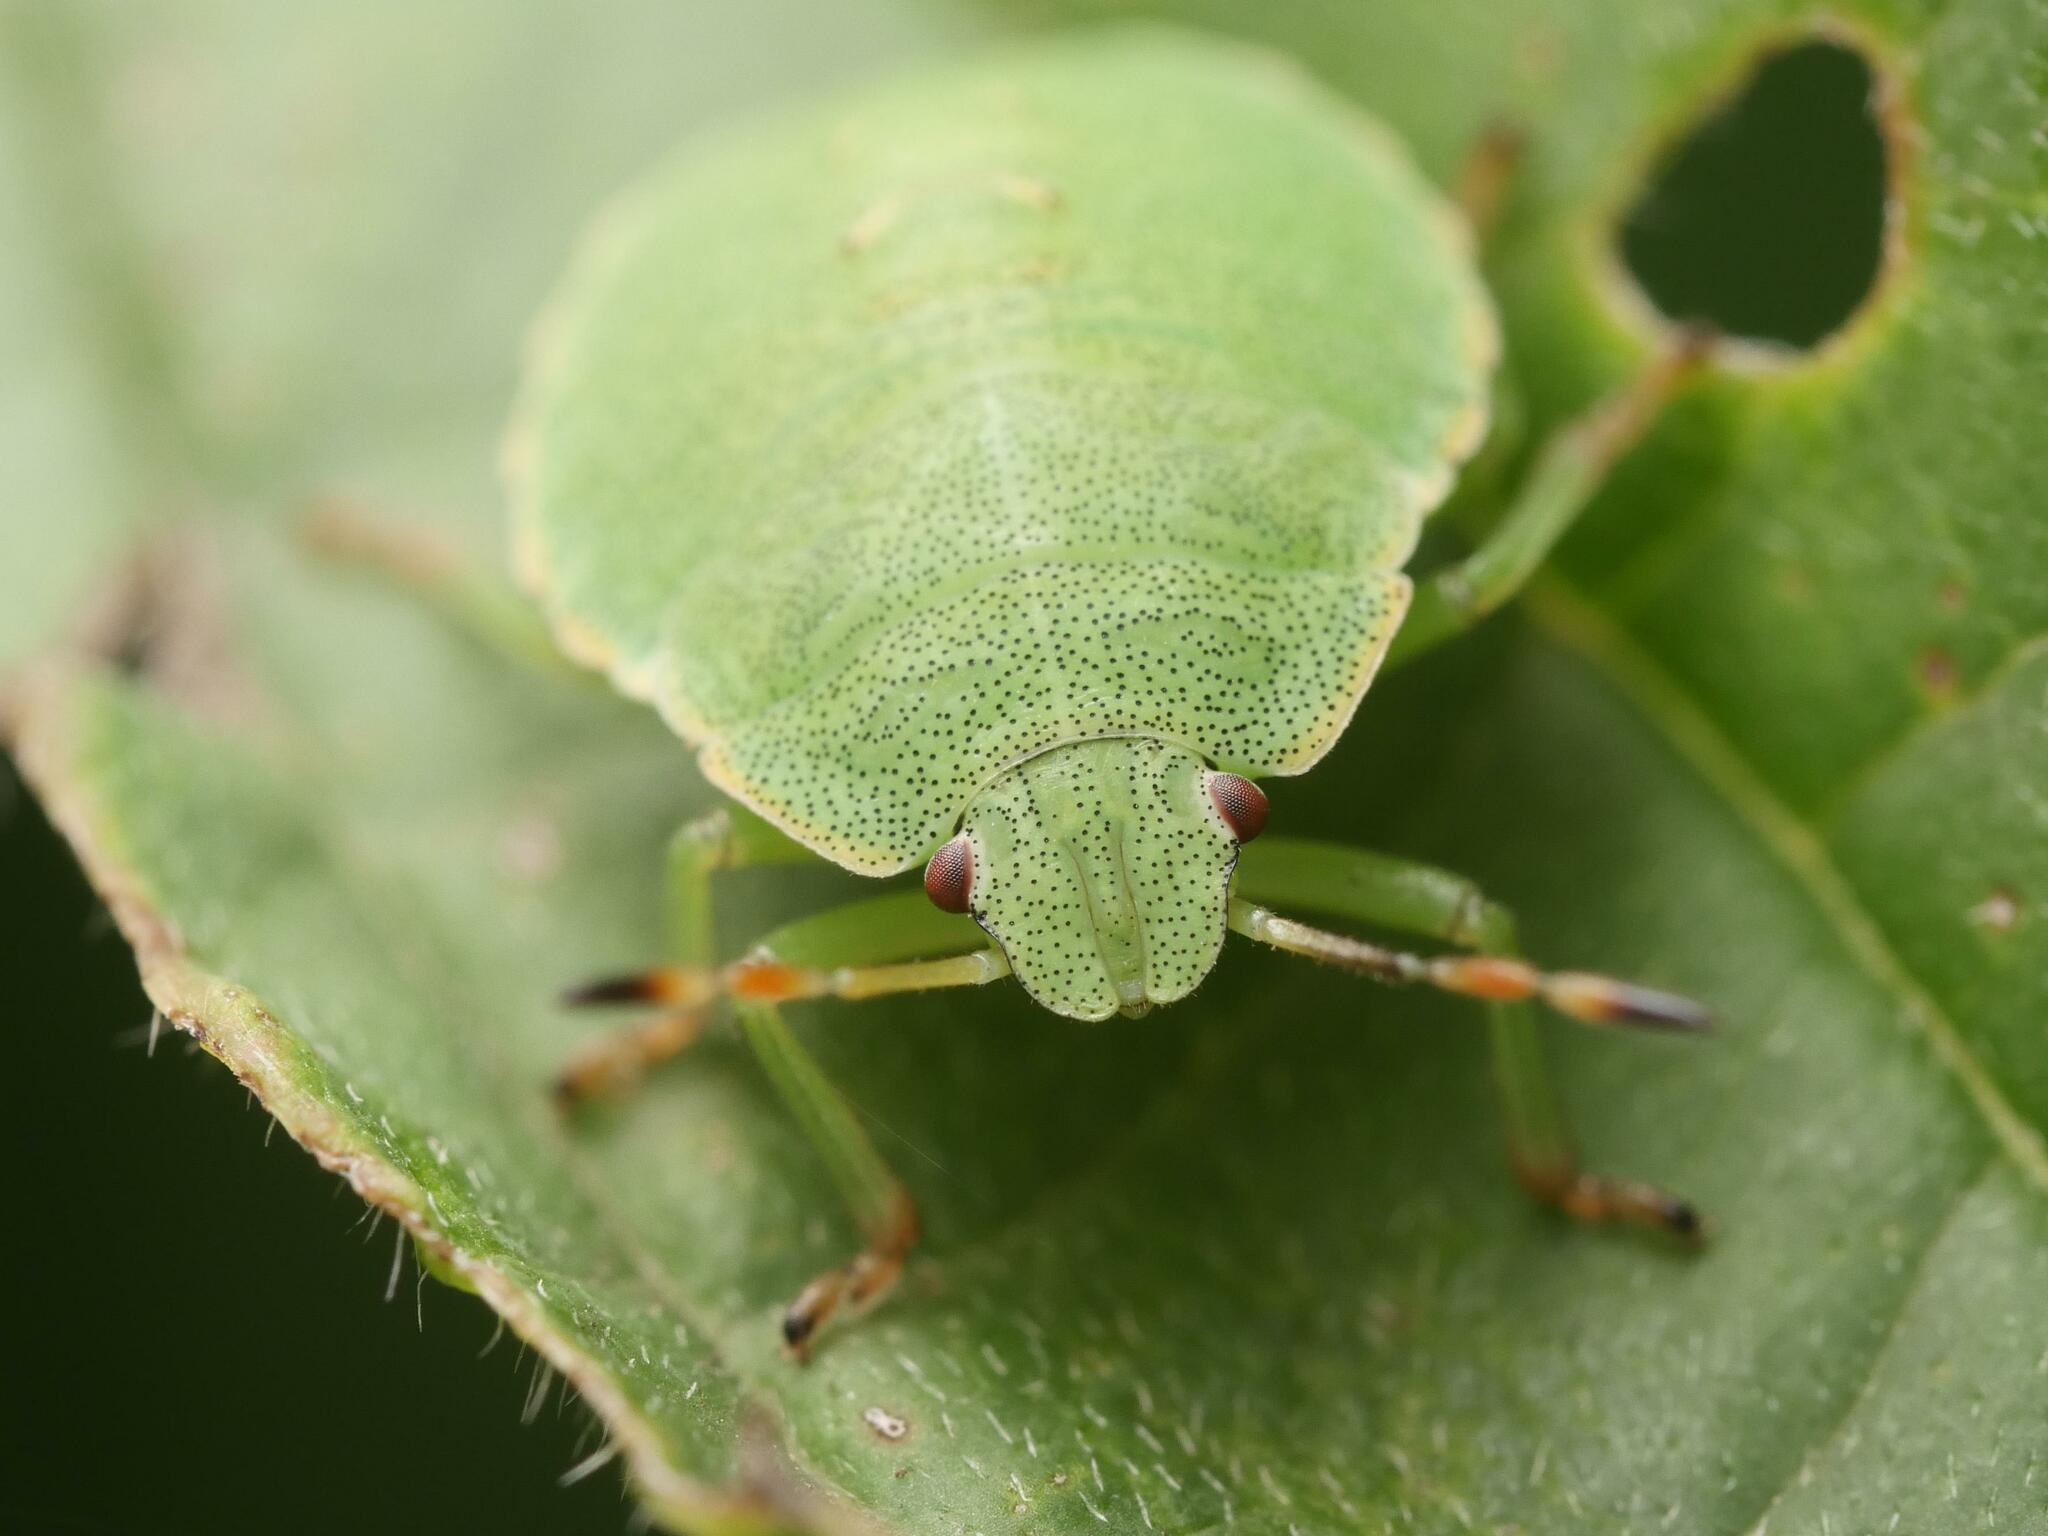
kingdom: Animalia
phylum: Arthropoda
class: Insecta
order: Hemiptera
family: Pentatomidae
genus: Palomena
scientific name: Palomena prasina
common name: Green shieldbug
